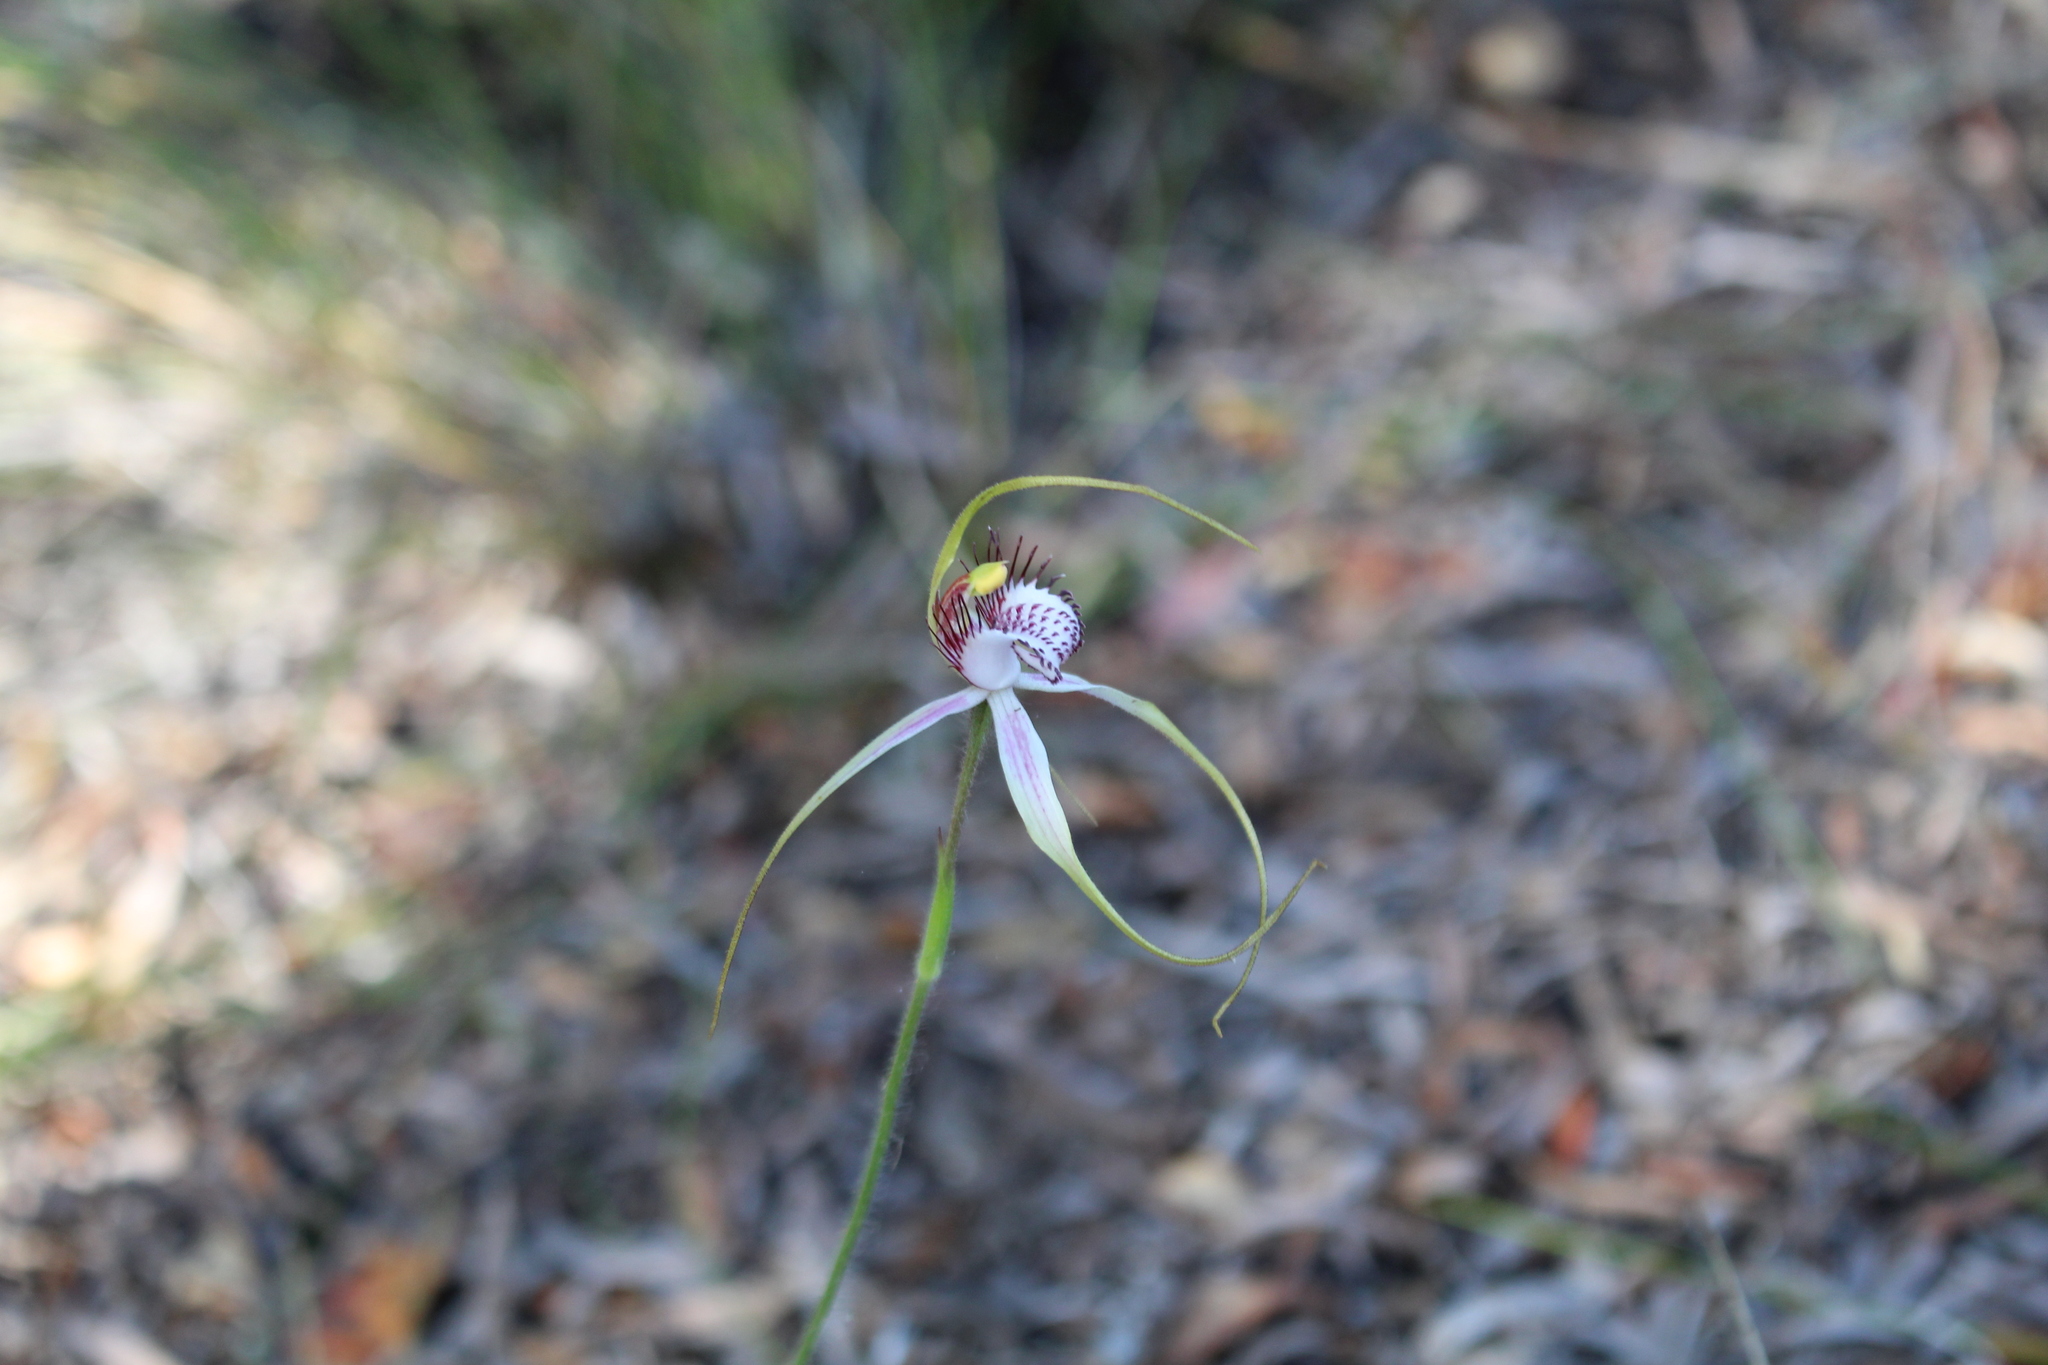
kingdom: Plantae
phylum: Tracheophyta
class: Liliopsida
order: Asparagales
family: Orchidaceae
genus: Caladenia
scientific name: Caladenia serotina
